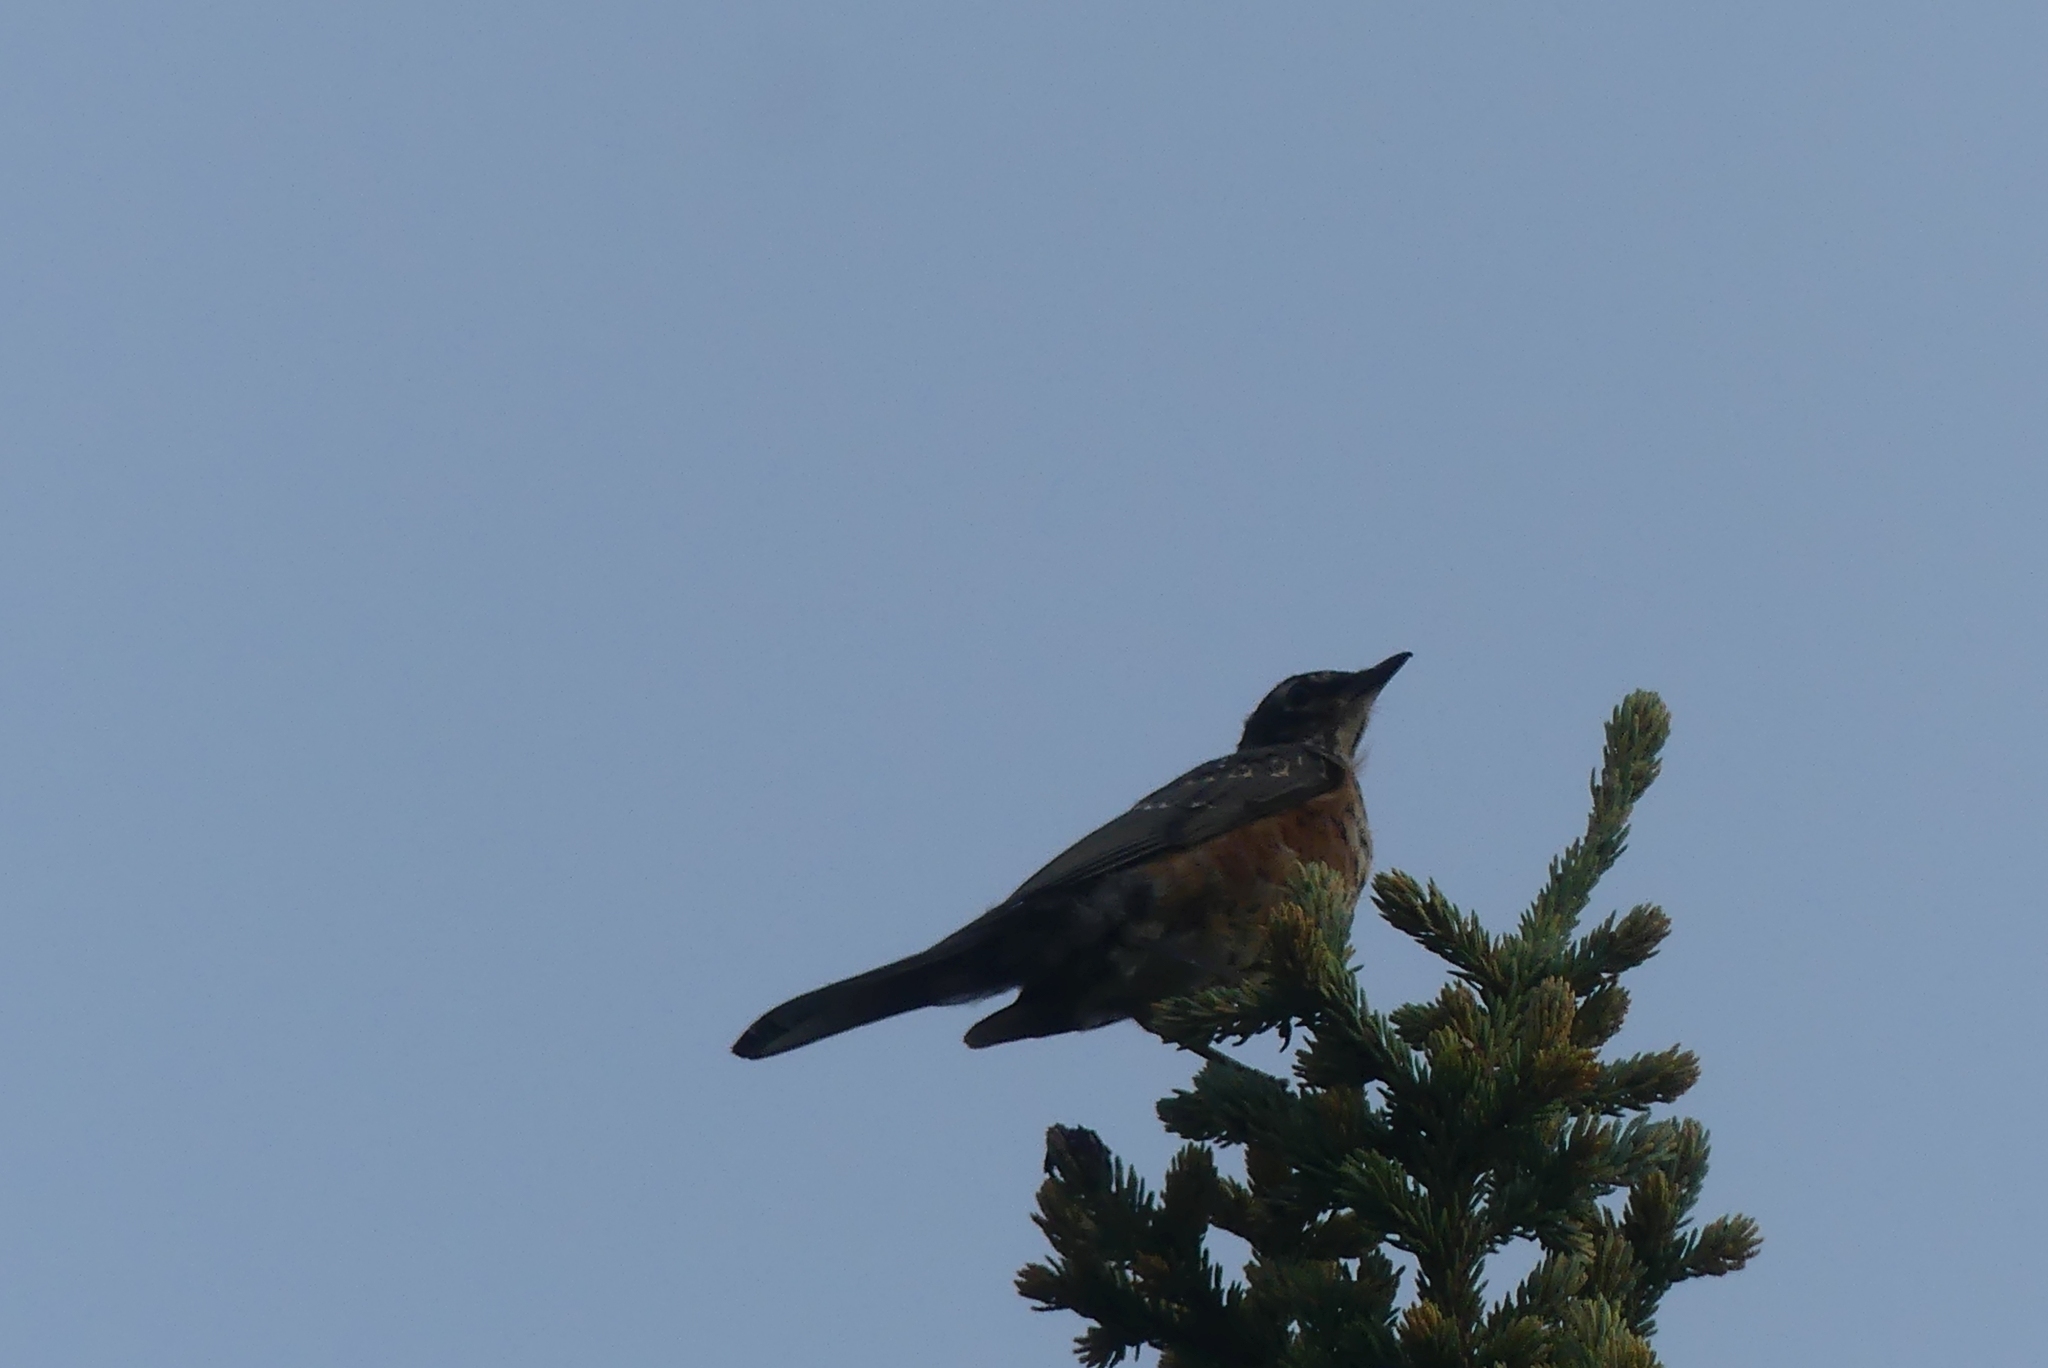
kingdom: Animalia
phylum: Chordata
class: Aves
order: Passeriformes
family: Turdidae
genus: Turdus
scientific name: Turdus migratorius
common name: American robin
